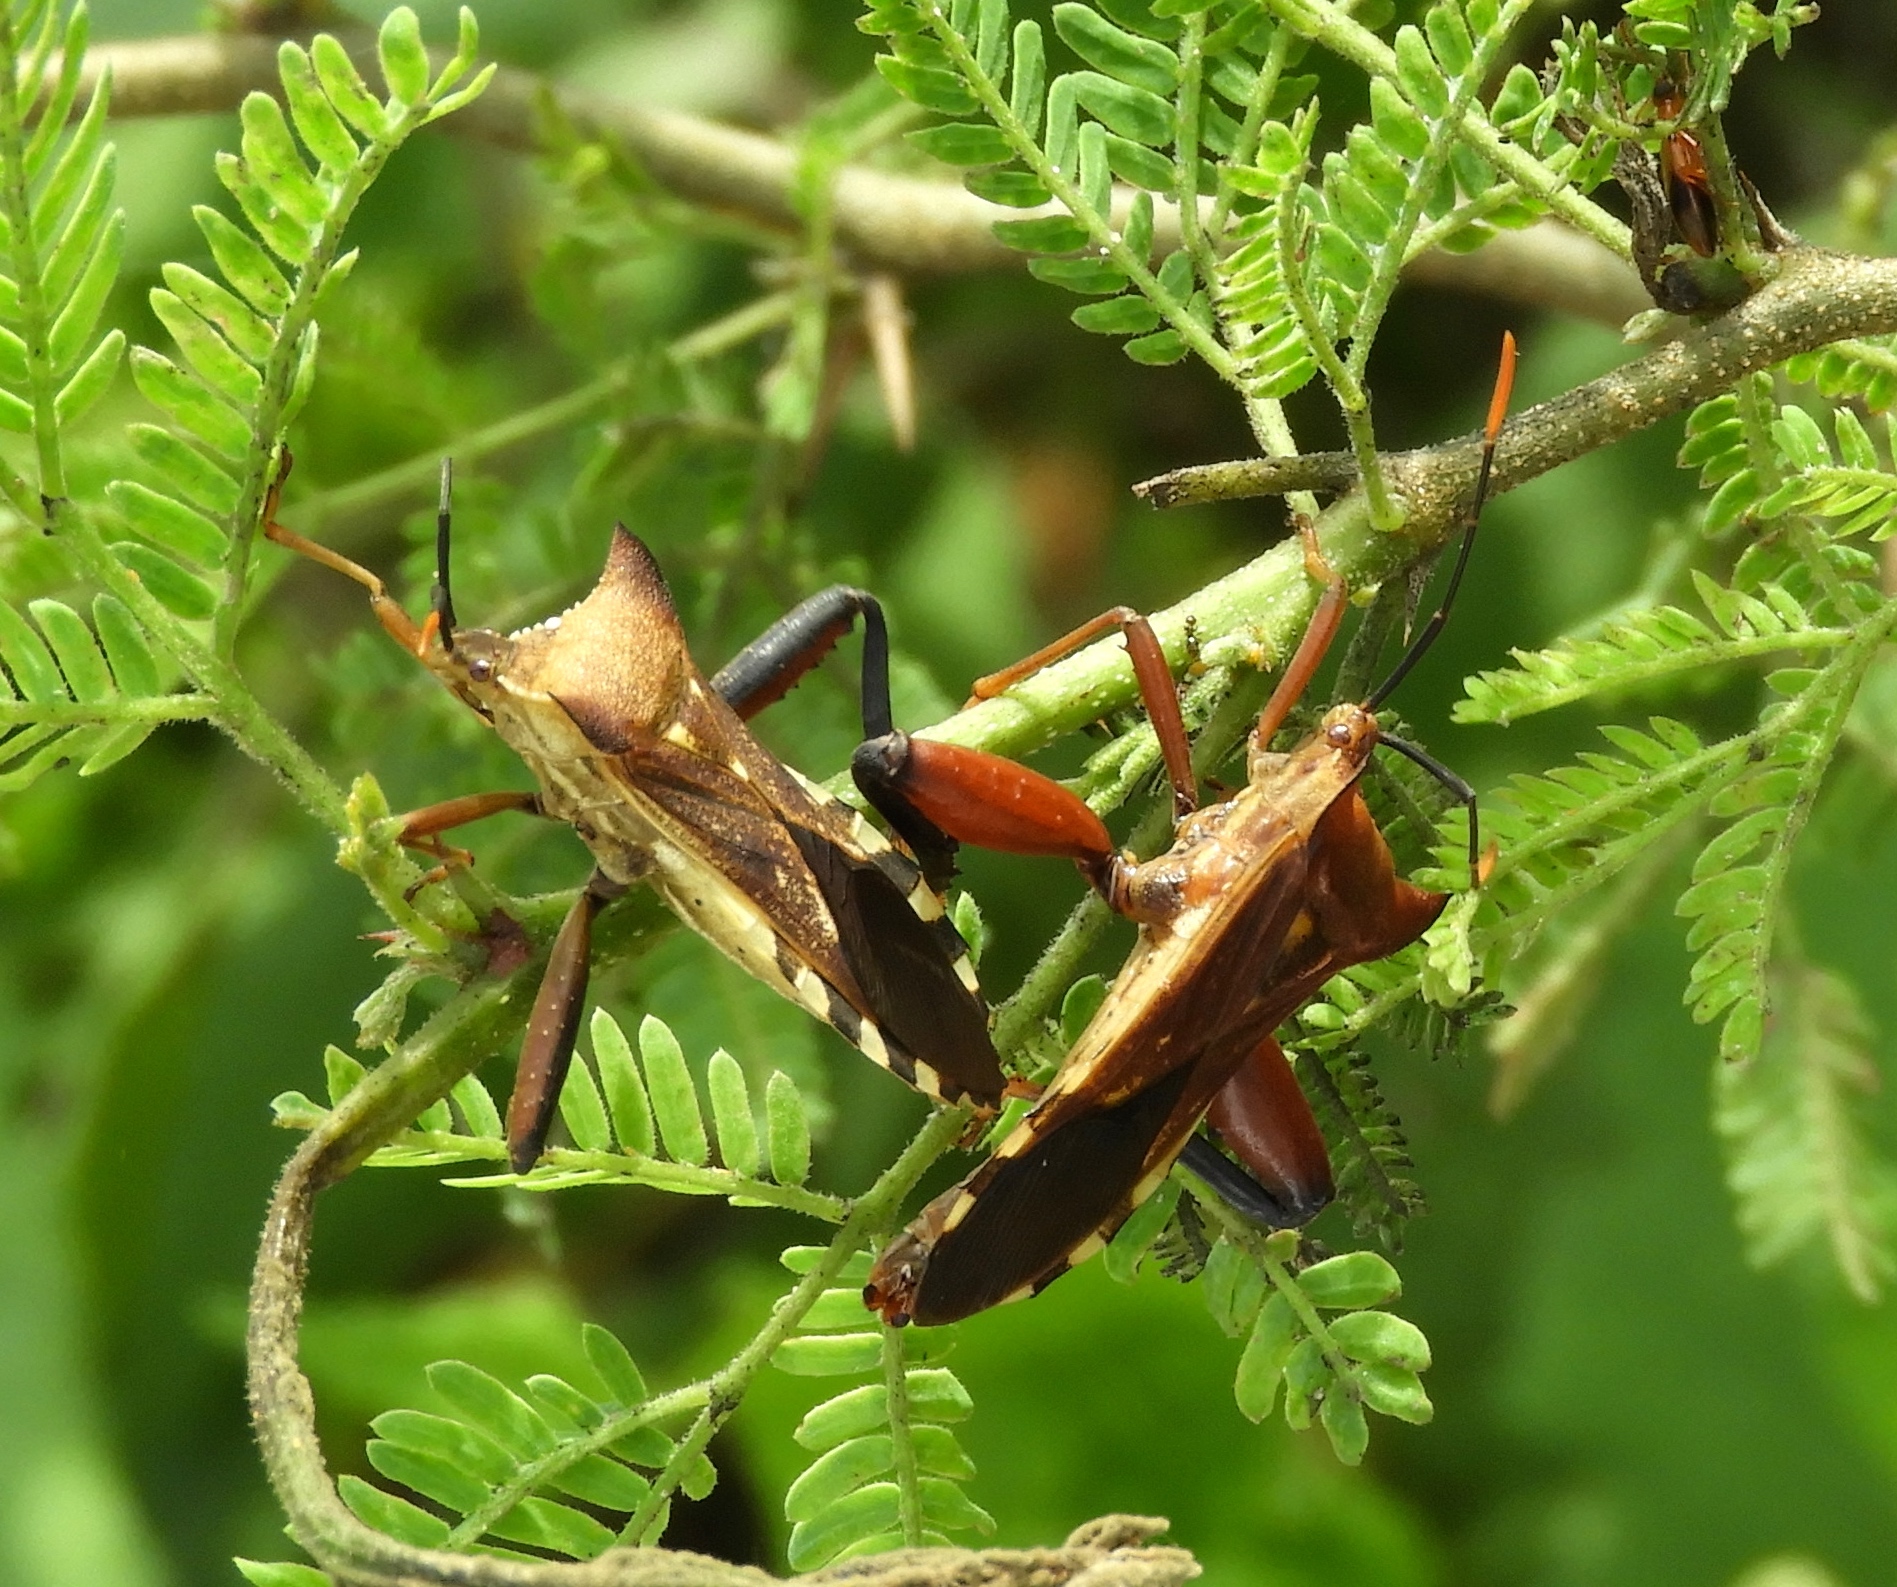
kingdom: Animalia
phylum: Arthropoda
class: Insecta
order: Hemiptera
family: Coreidae
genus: Mozena
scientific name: Mozena
